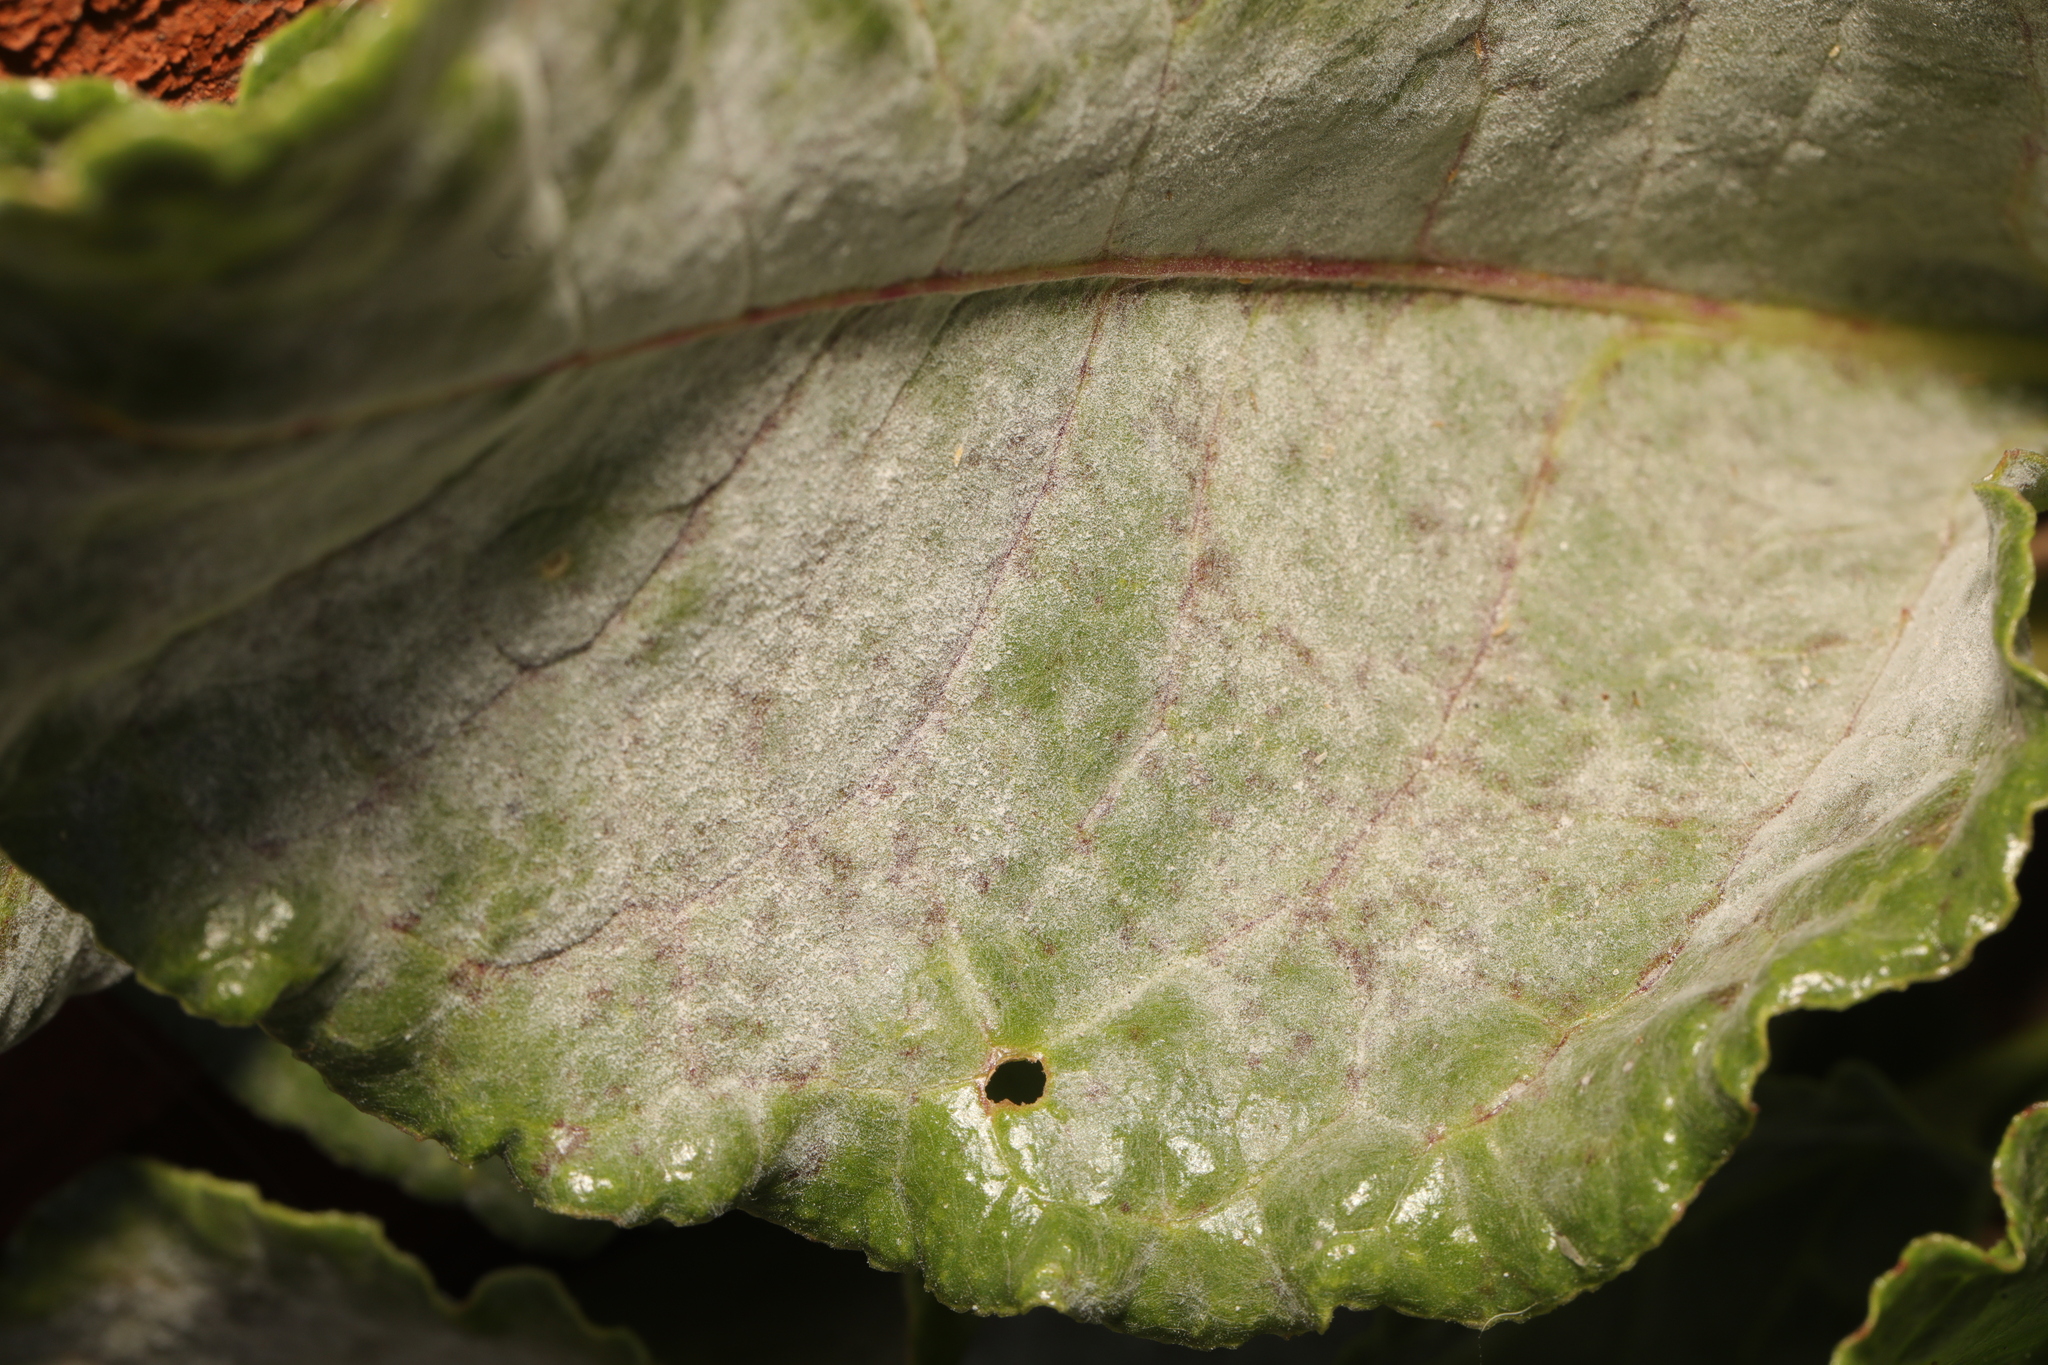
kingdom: Fungi
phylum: Ascomycota
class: Leotiomycetes
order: Helotiales
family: Erysiphaceae
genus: Erysiphe
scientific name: Erysiphe betae
